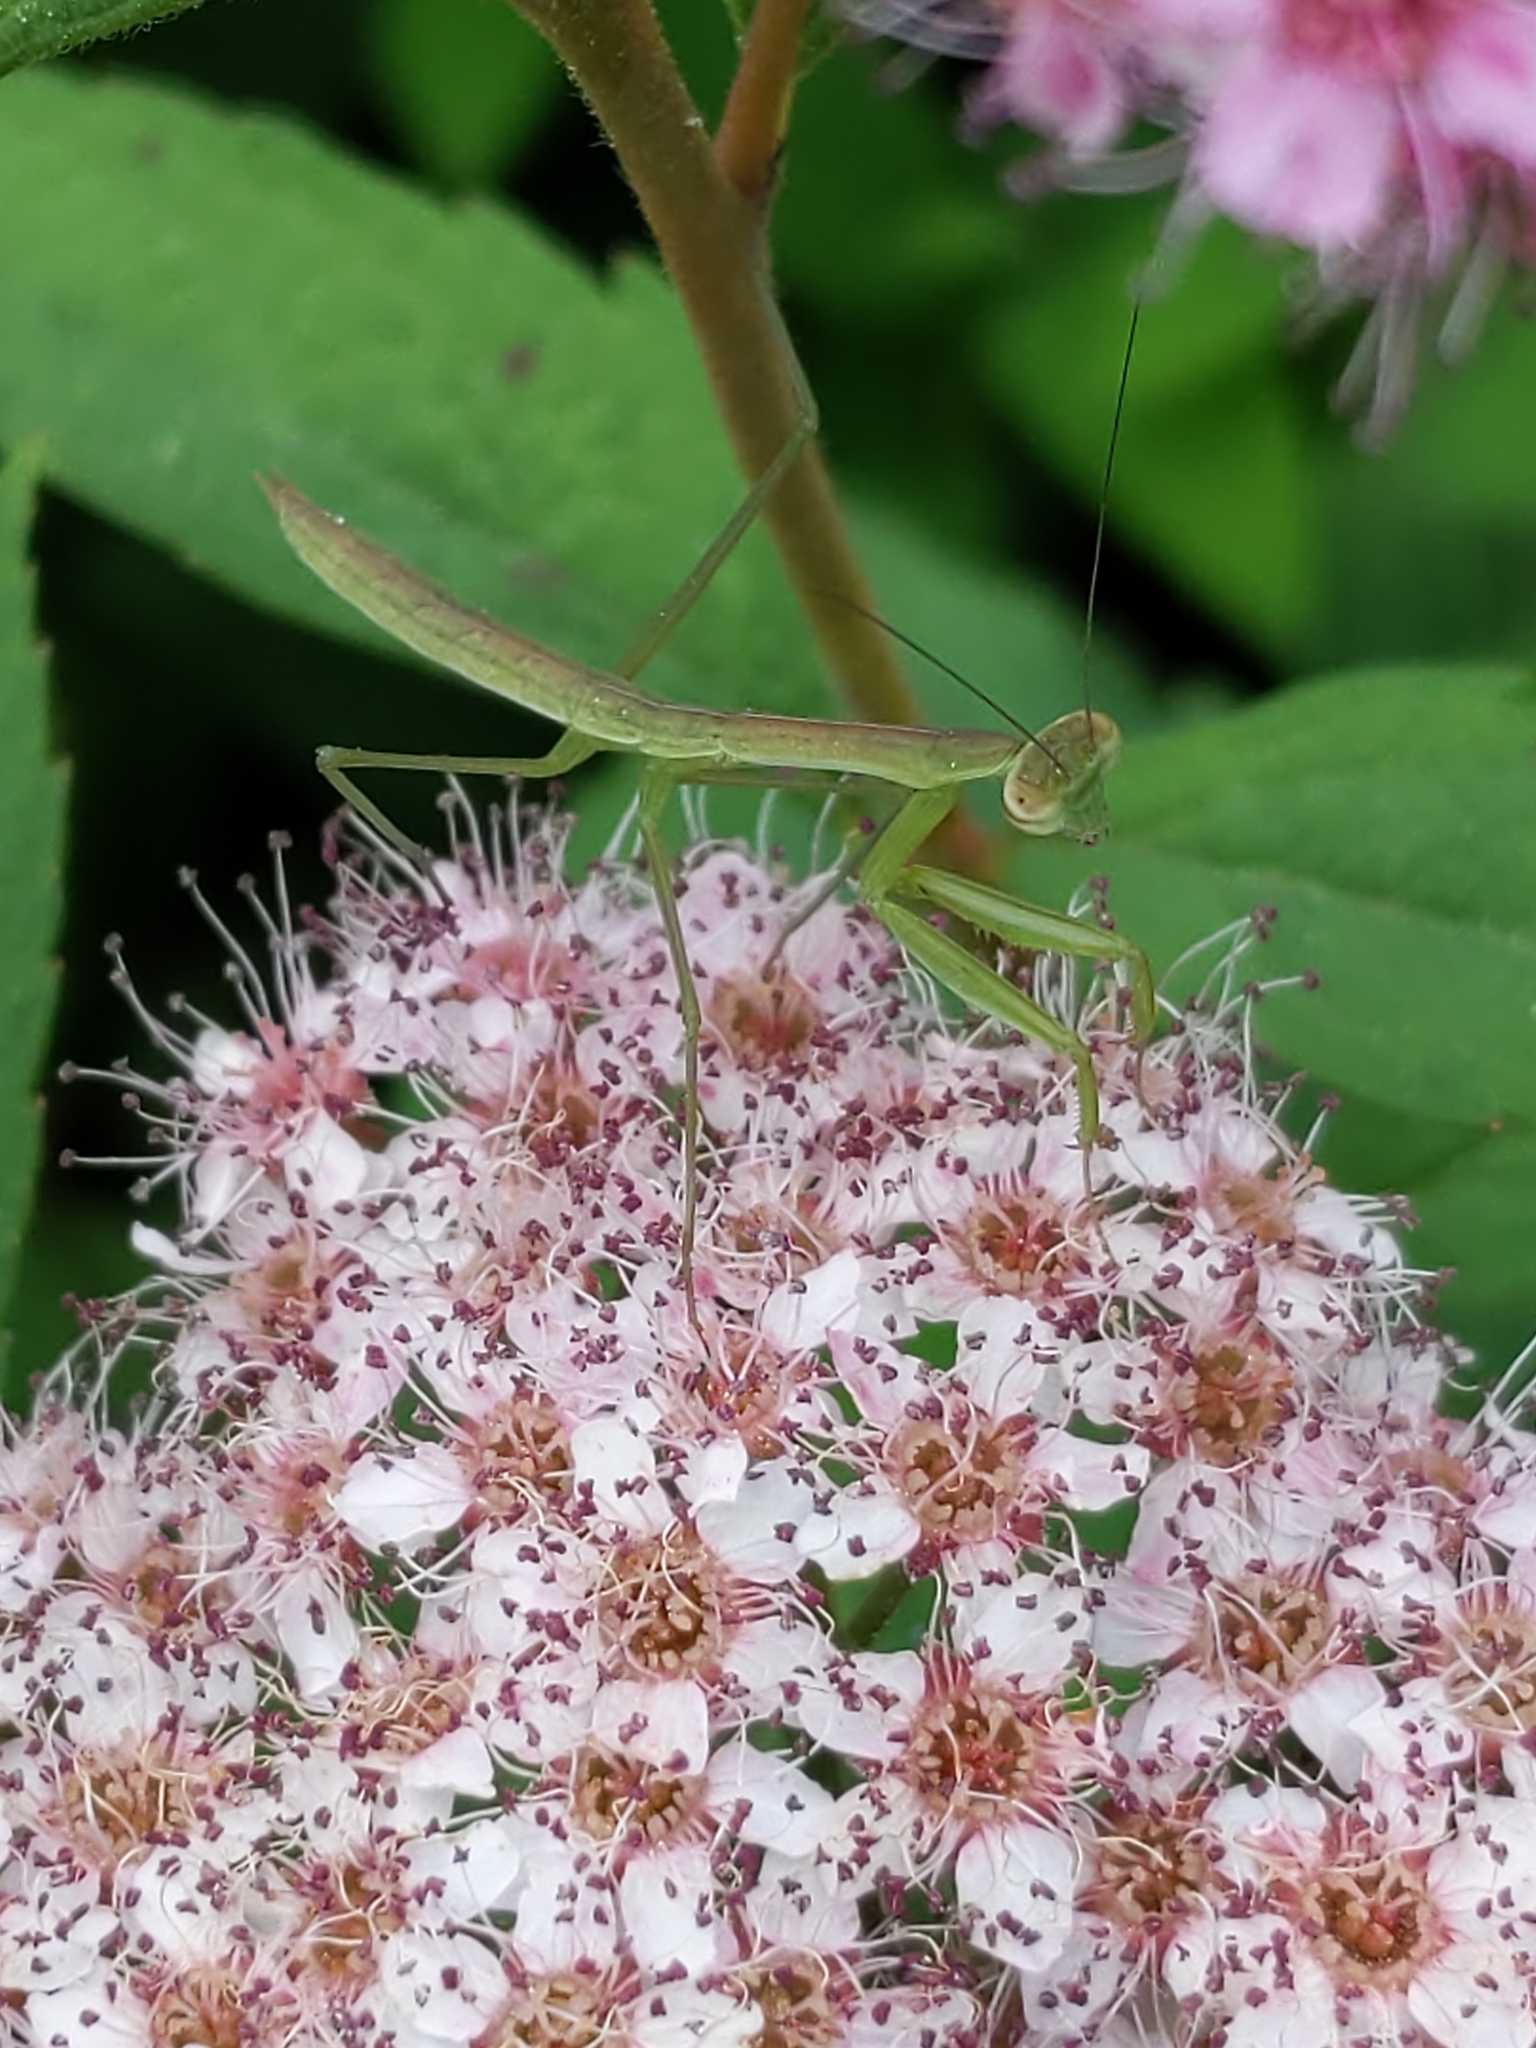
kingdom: Animalia
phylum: Arthropoda
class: Insecta
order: Mantodea
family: Mantidae
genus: Tenodera
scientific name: Tenodera sinensis
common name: Chinese mantis
